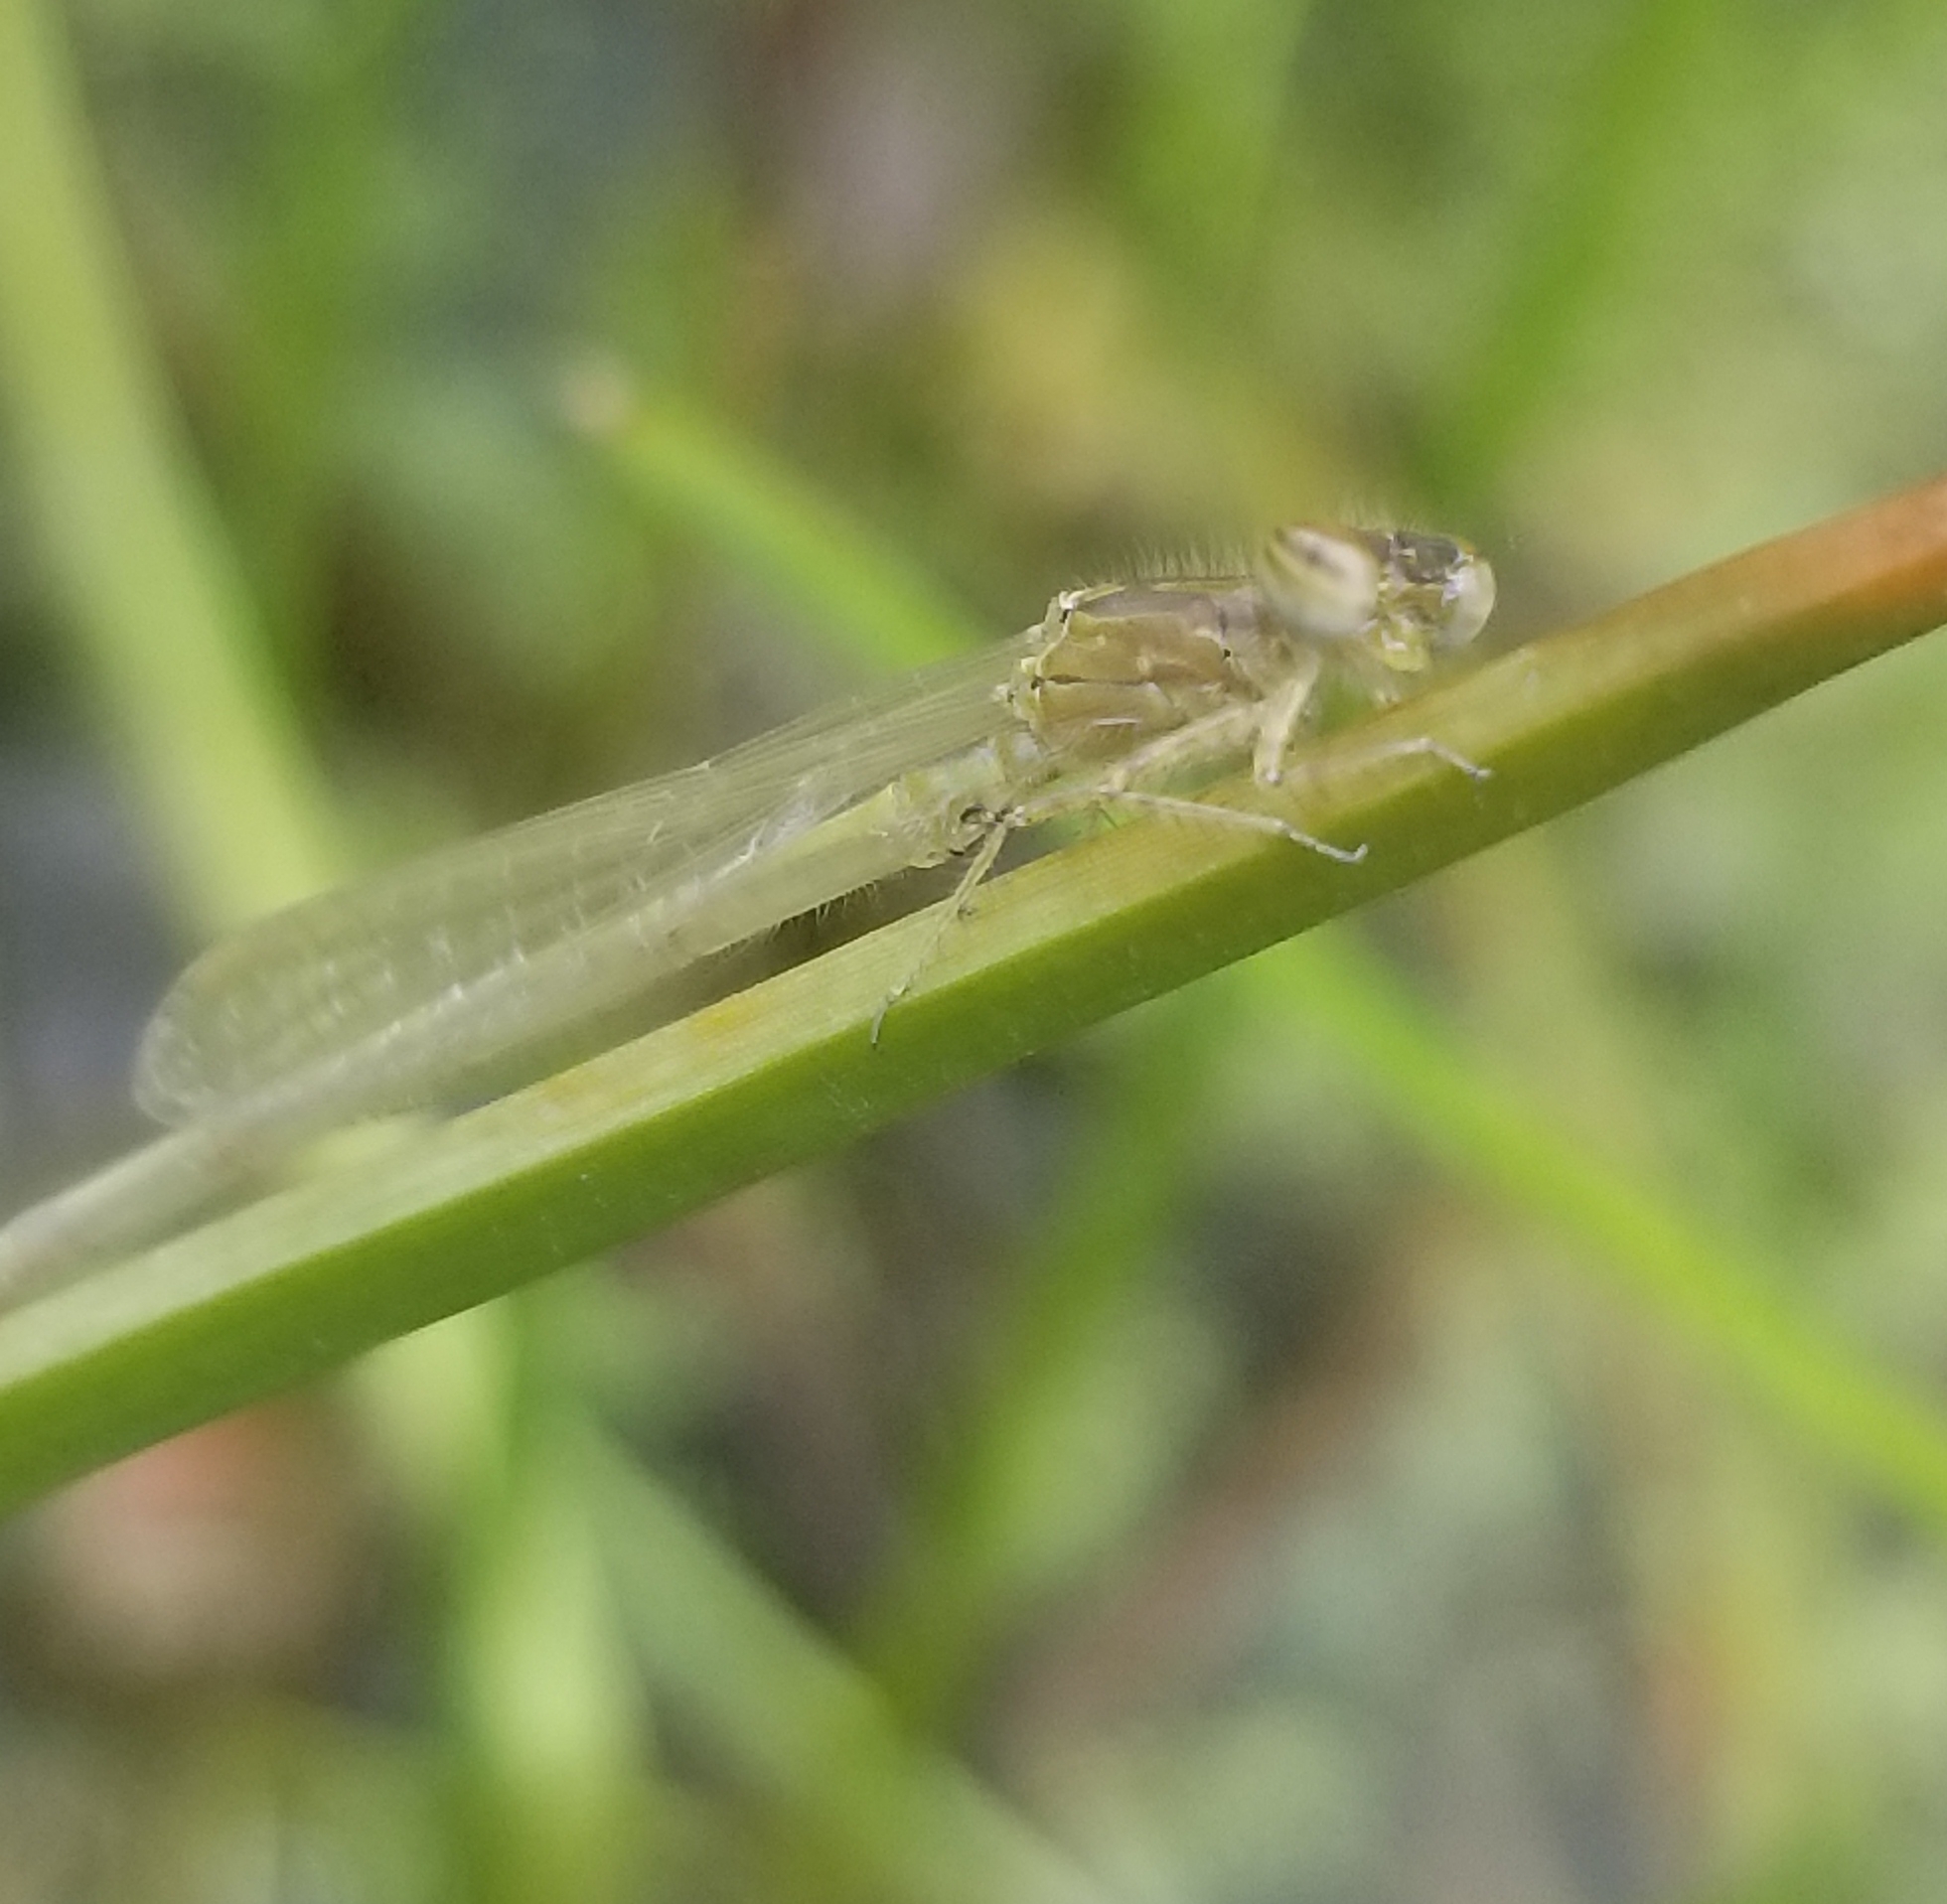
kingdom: Animalia
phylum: Arthropoda
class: Insecta
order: Odonata
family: Coenagrionidae
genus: Ischnura
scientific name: Ischnura posita
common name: Fragile forktail
